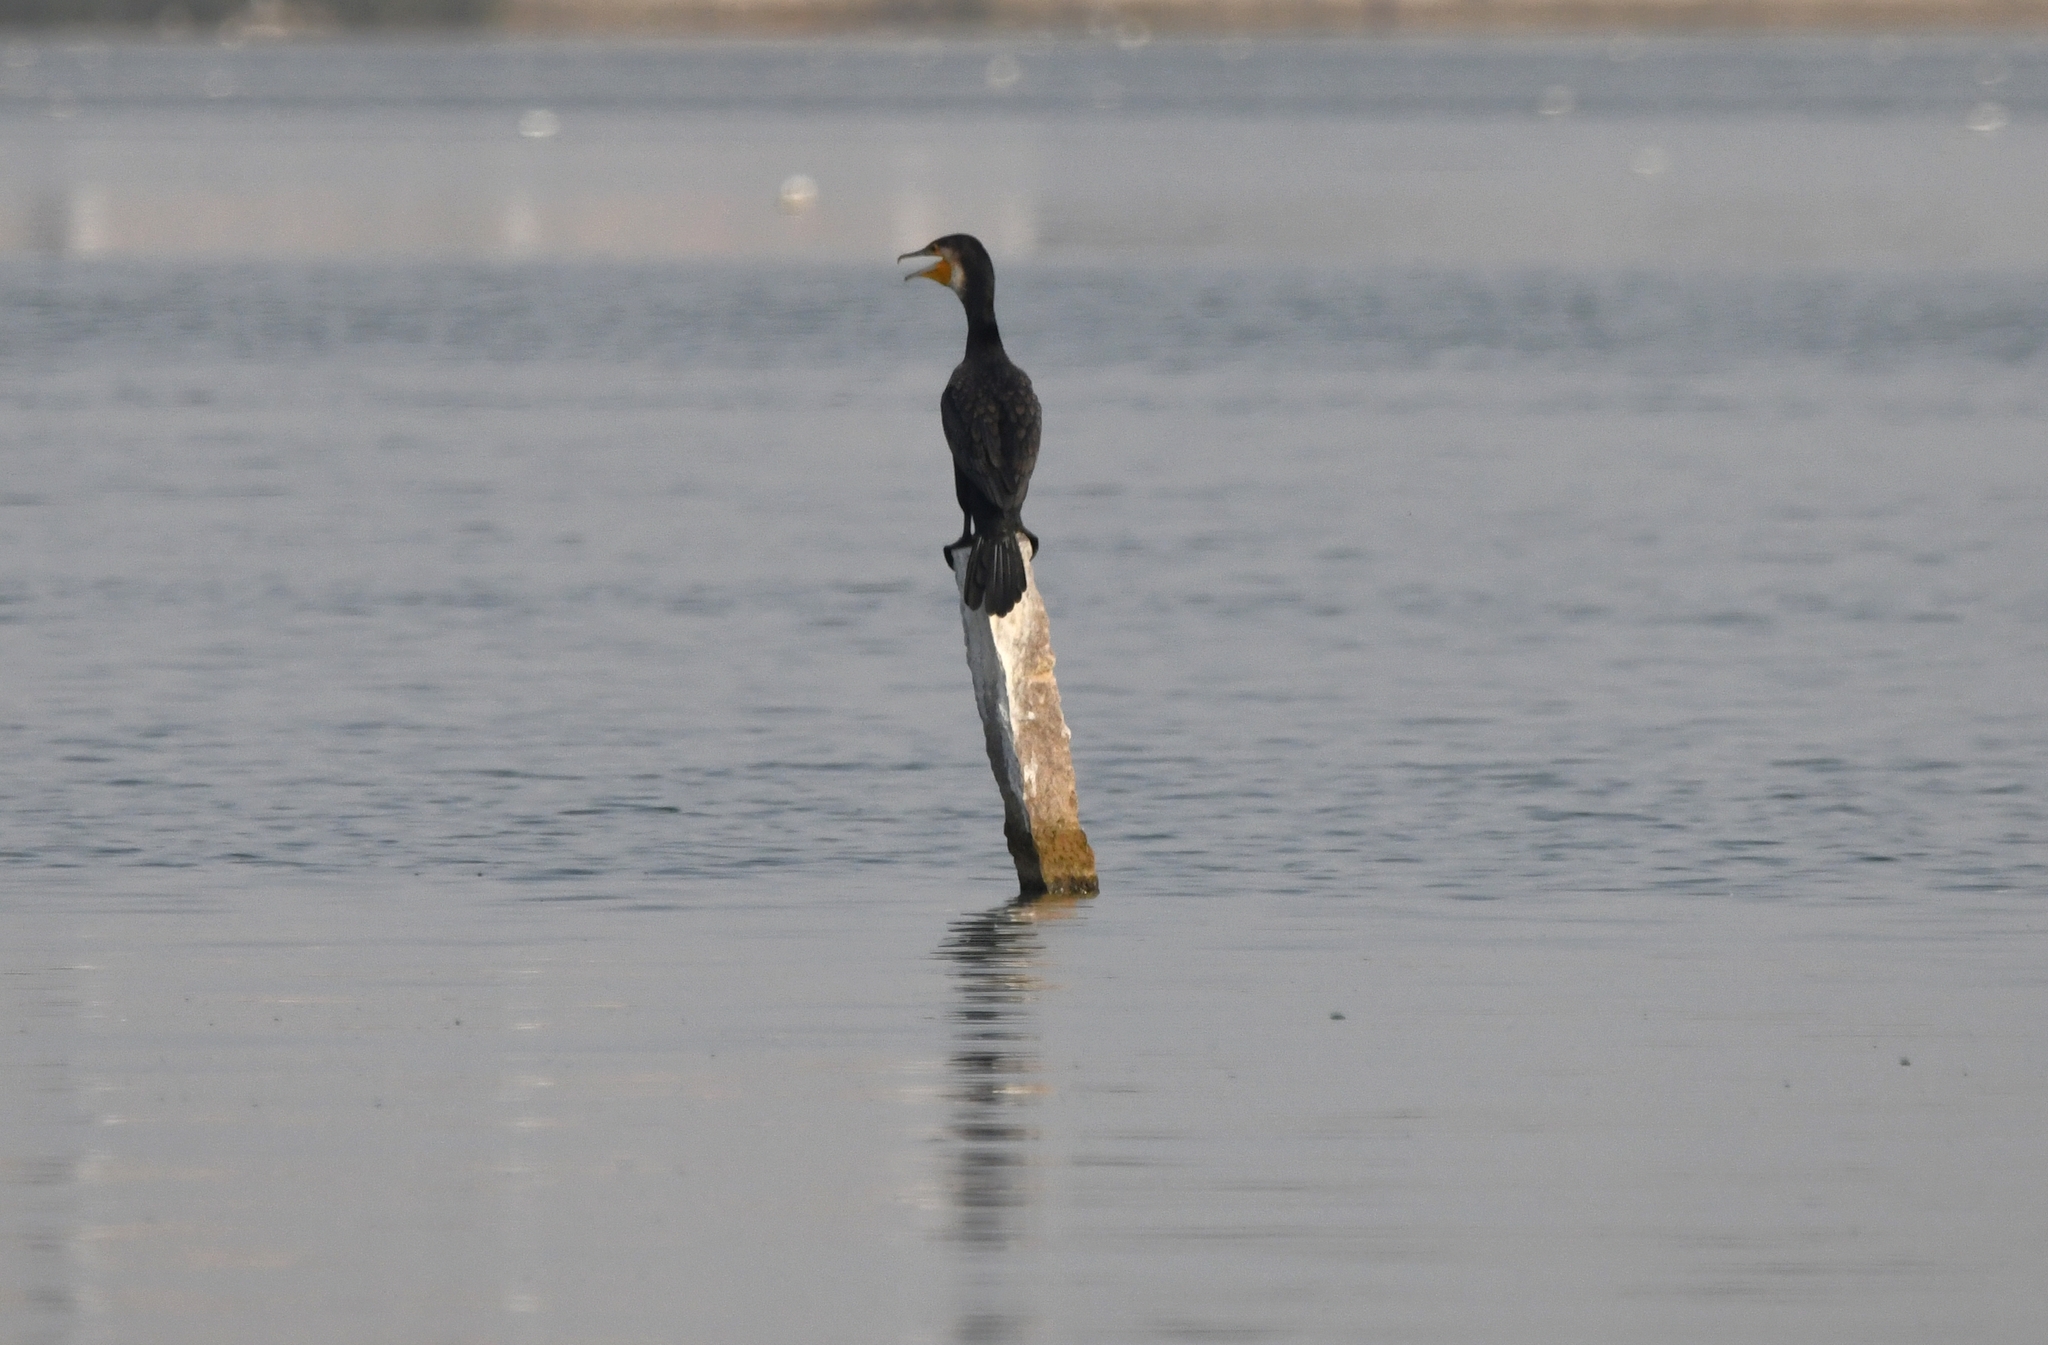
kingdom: Animalia
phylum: Chordata
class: Aves
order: Suliformes
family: Phalacrocoracidae
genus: Phalacrocorax
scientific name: Phalacrocorax carbo
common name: Great cormorant
